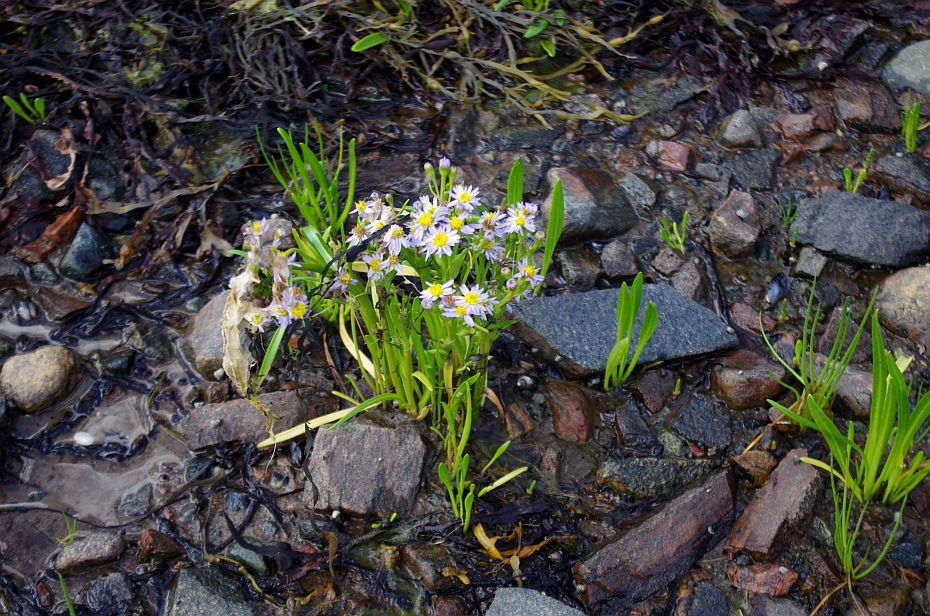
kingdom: Plantae
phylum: Tracheophyta
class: Magnoliopsida
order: Asterales
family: Asteraceae
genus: Tripolium
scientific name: Tripolium pannonicum
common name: Sea aster
